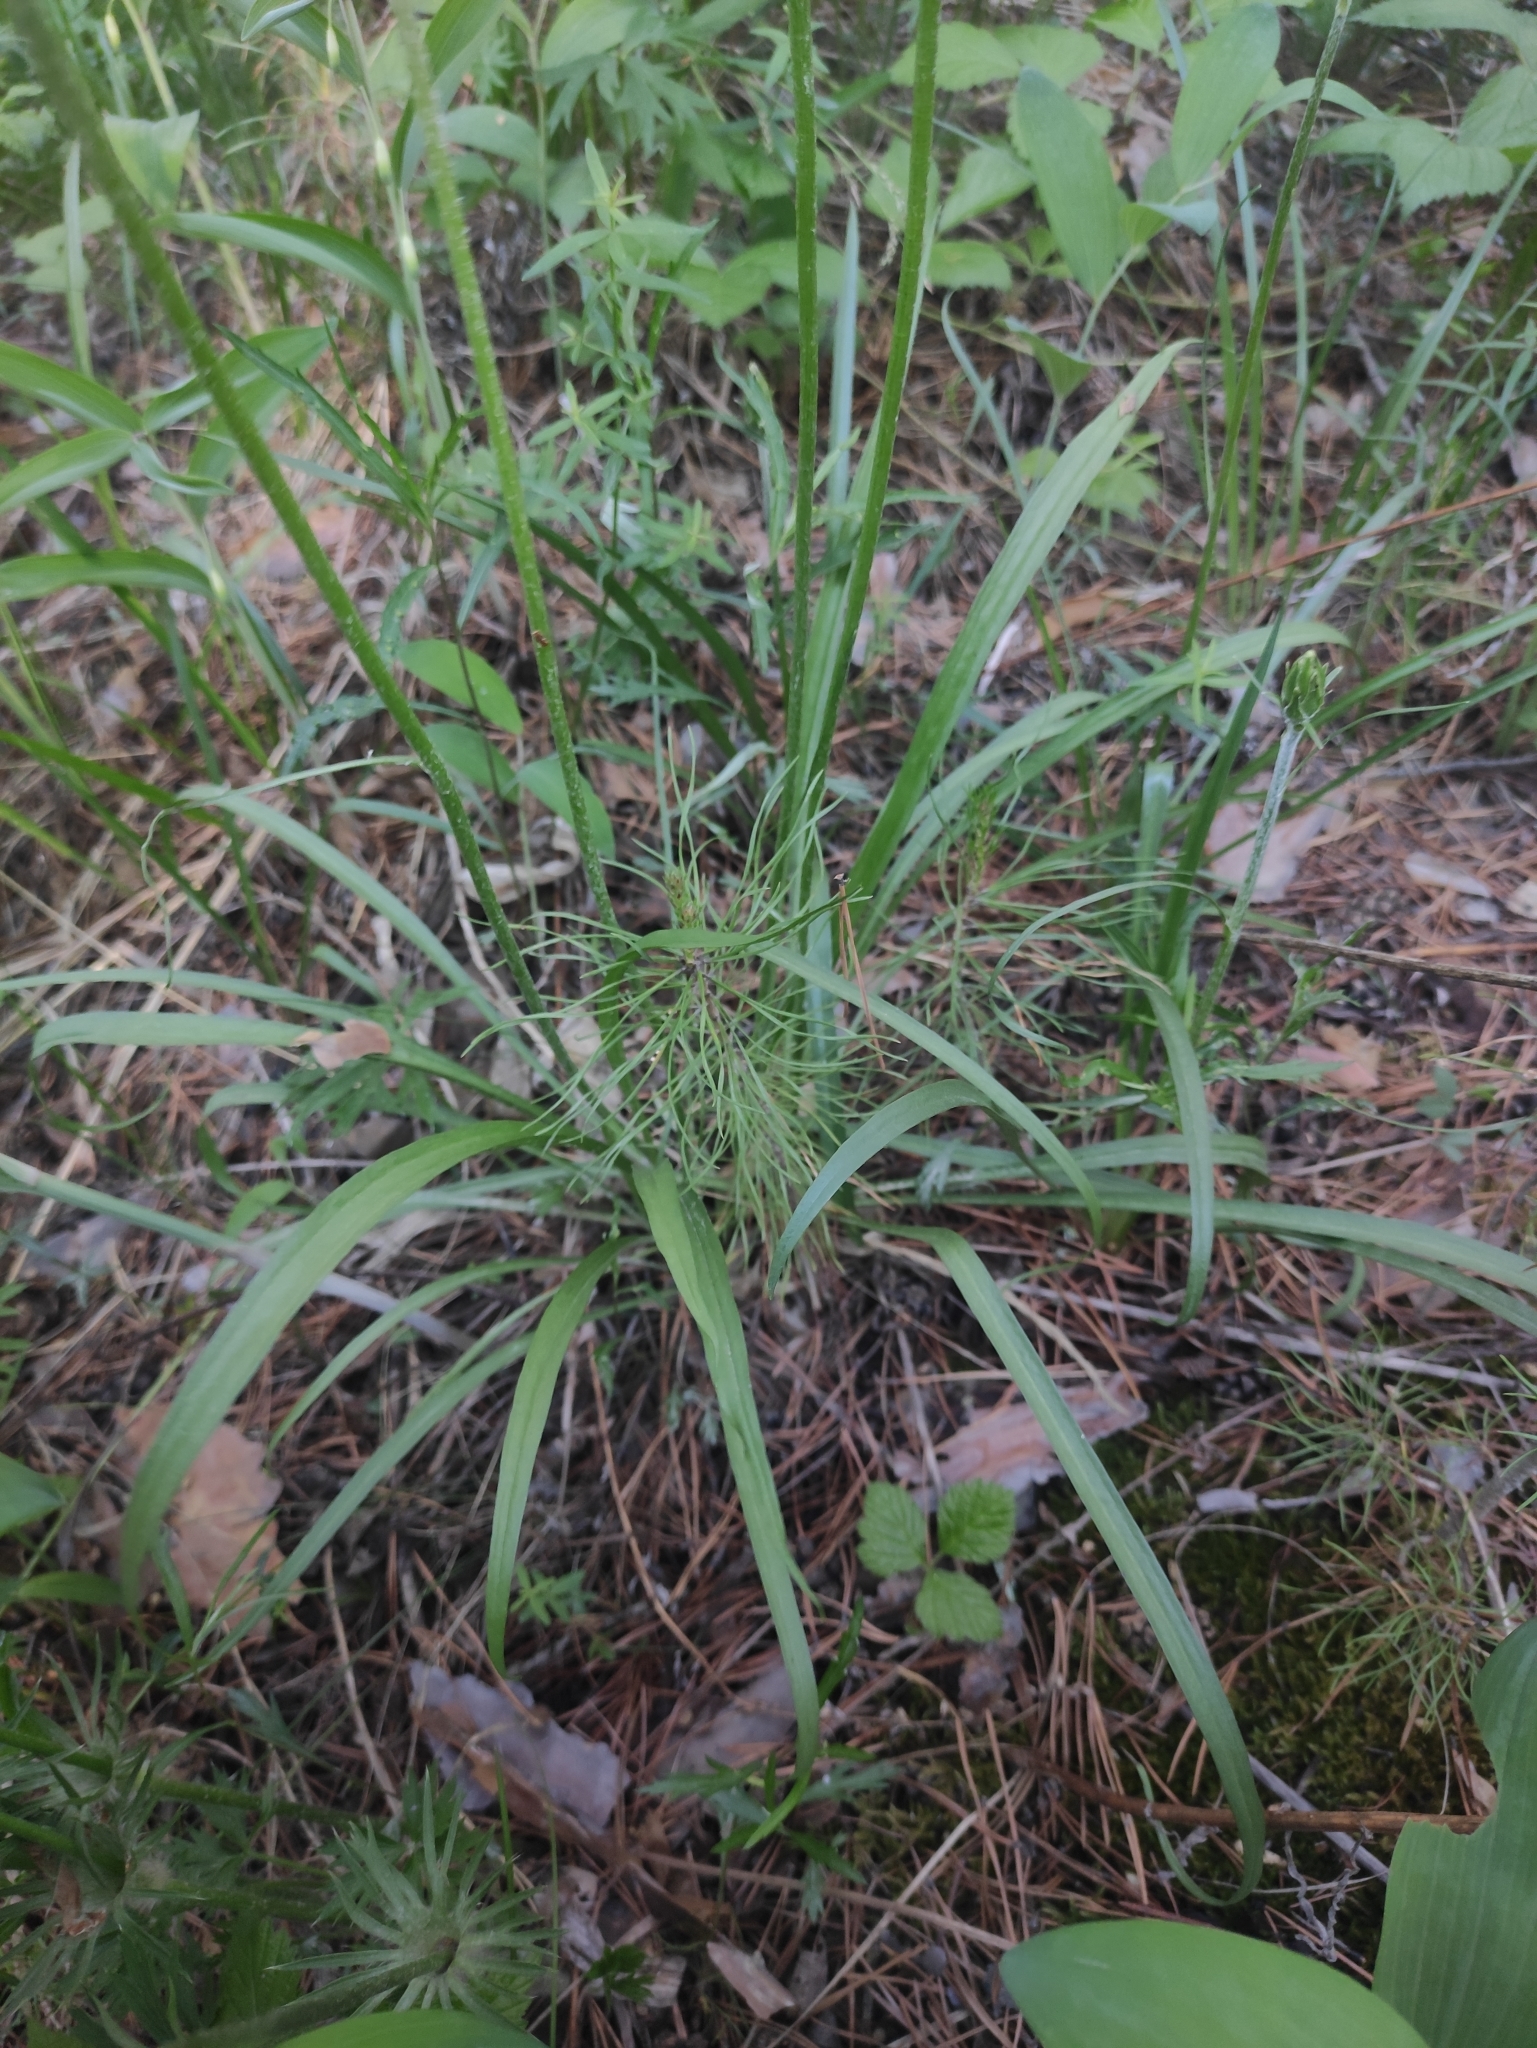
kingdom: Plantae
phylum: Tracheophyta
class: Magnoliopsida
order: Asterales
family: Asteraceae
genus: Scorzonera
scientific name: Scorzonera radiata
